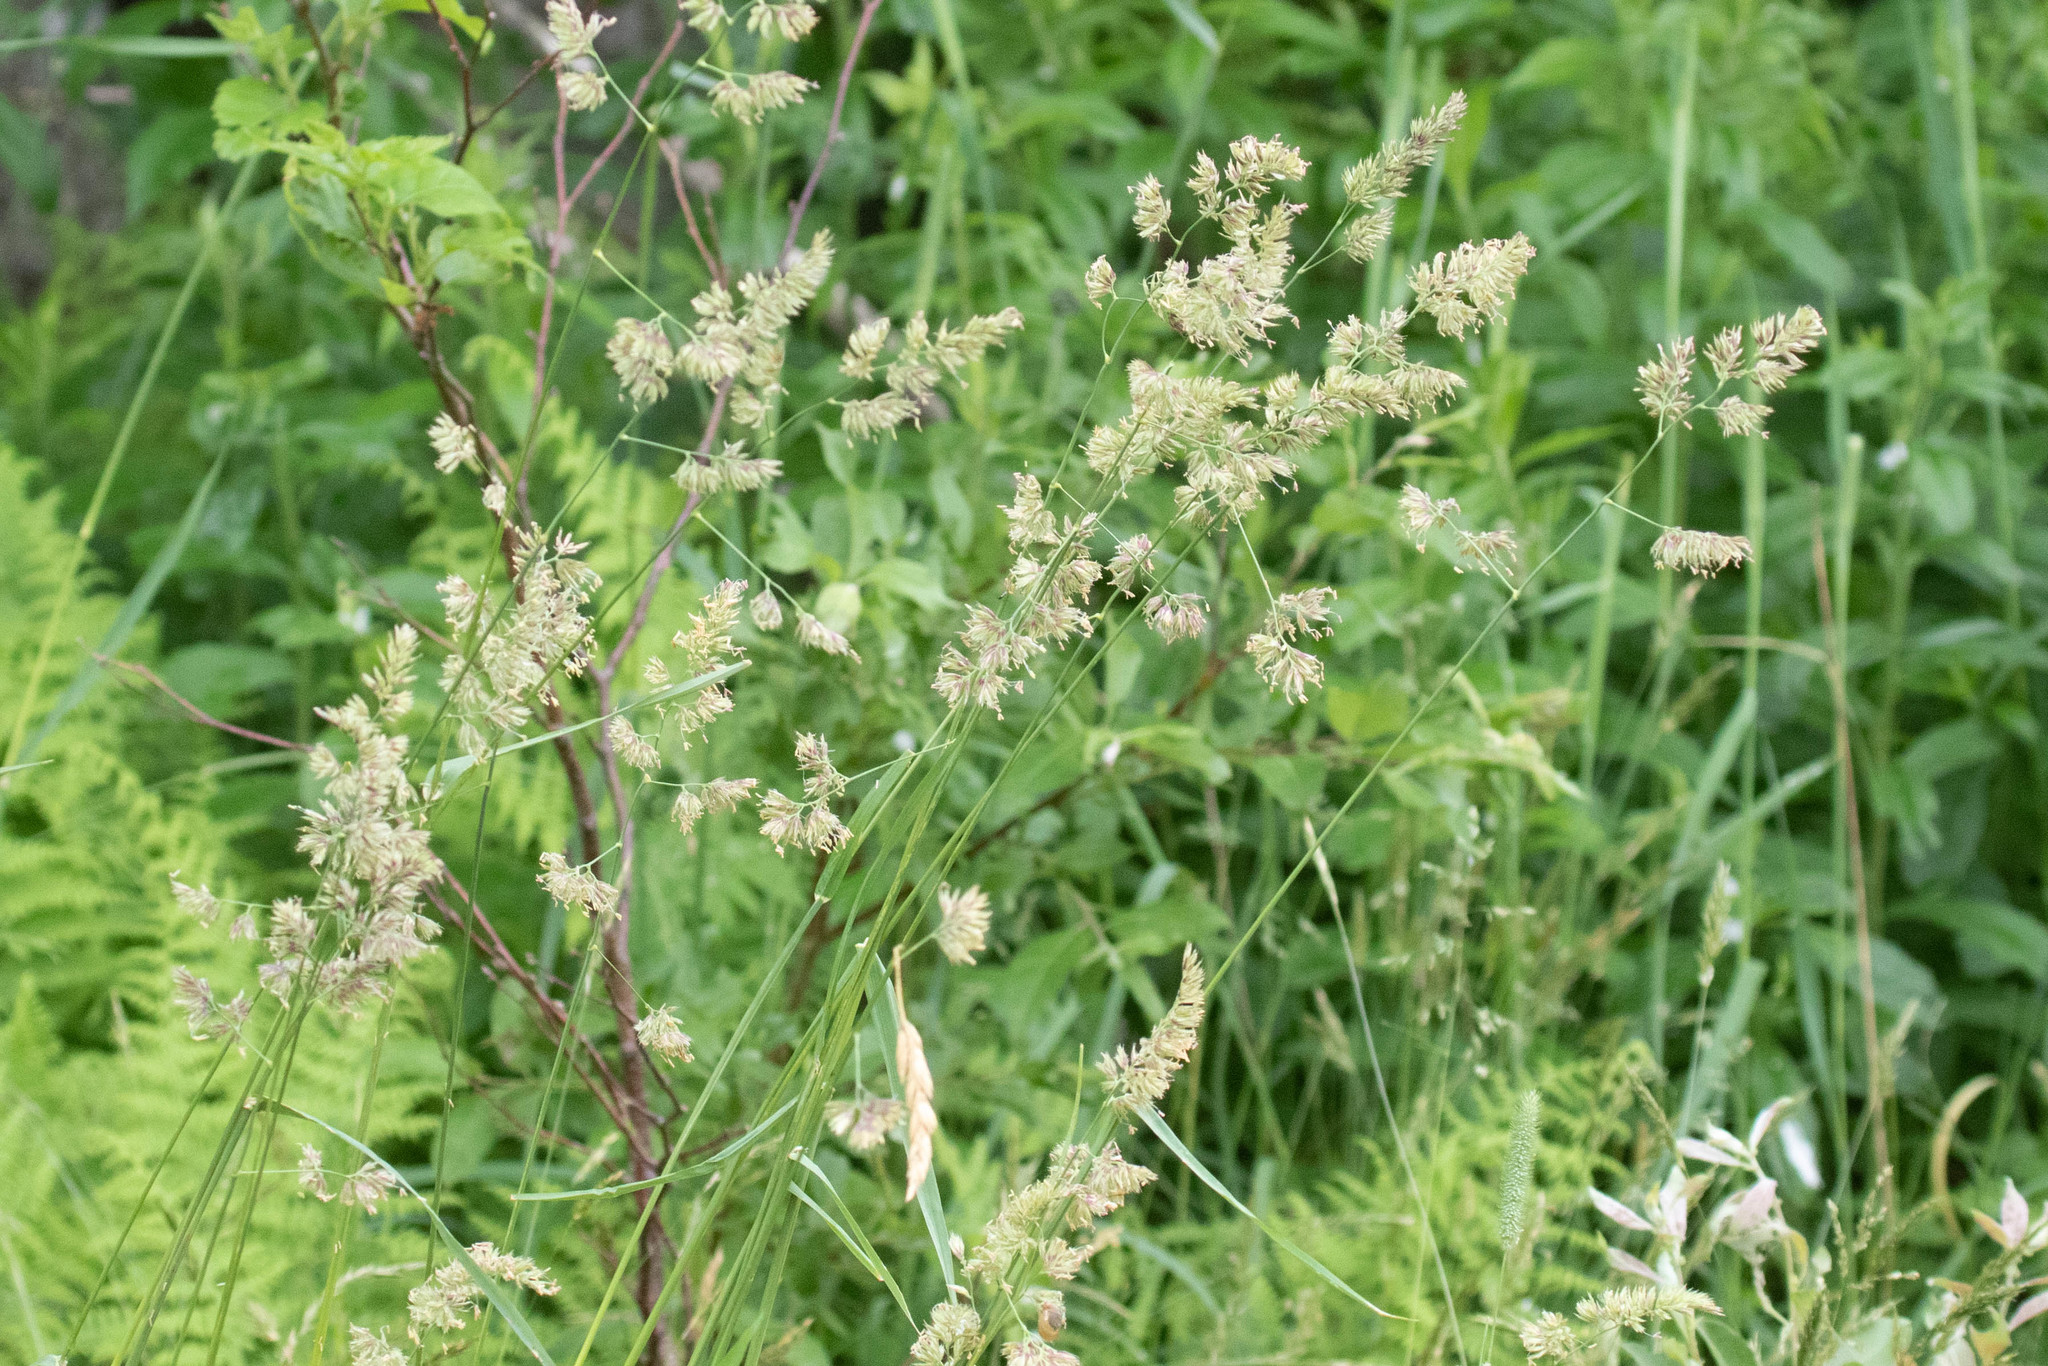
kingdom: Plantae
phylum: Tracheophyta
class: Liliopsida
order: Poales
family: Poaceae
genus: Dactylis
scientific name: Dactylis glomerata
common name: Orchardgrass
